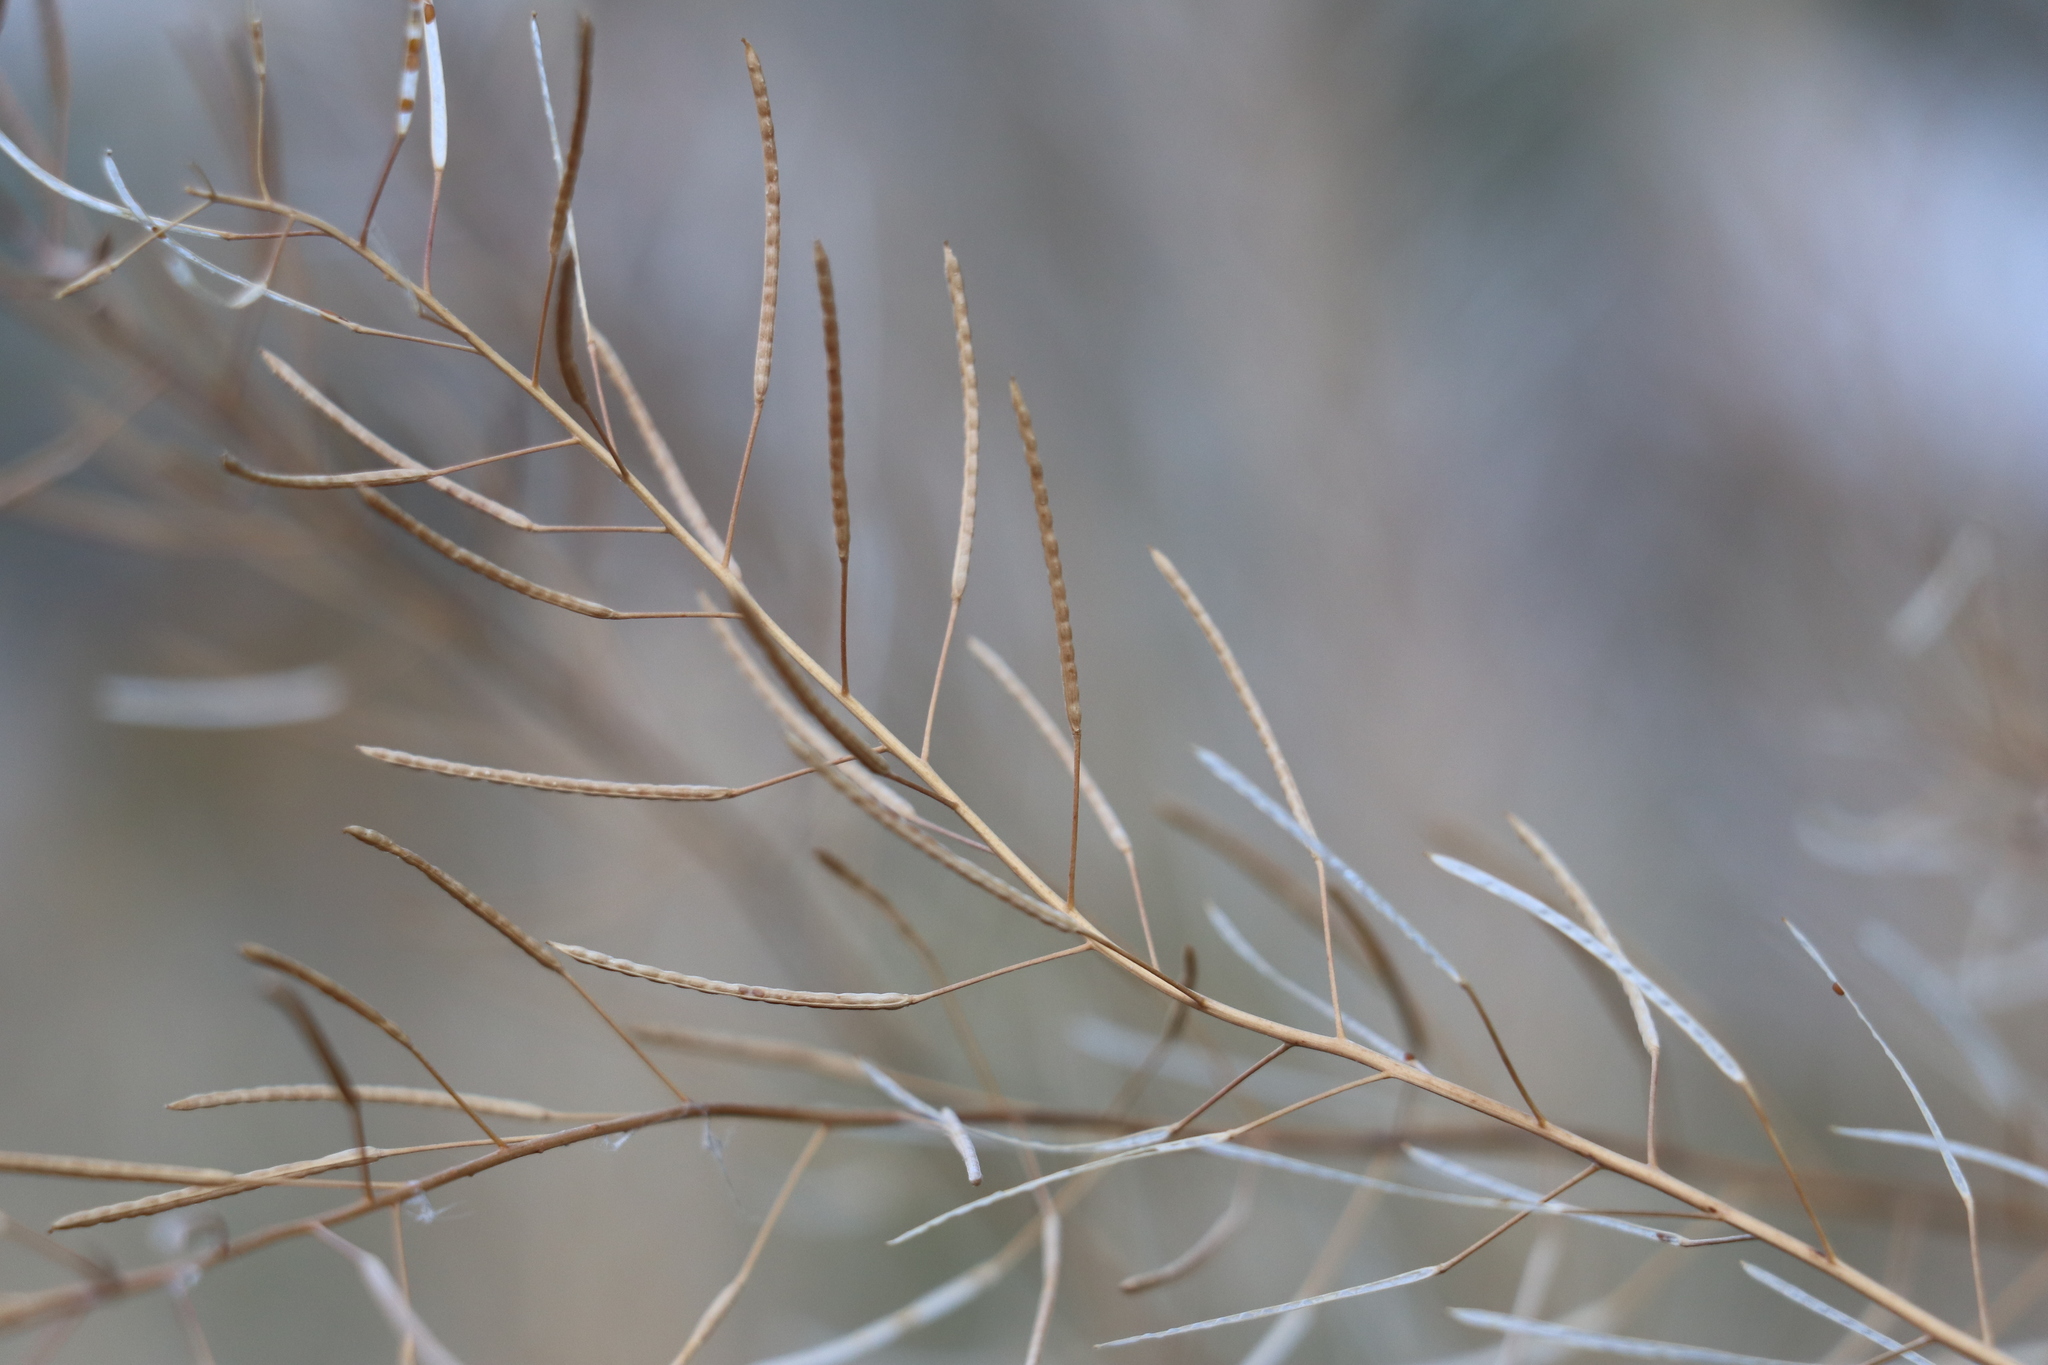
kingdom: Plantae
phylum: Tracheophyta
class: Magnoliopsida
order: Brassicales
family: Brassicaceae
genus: Erysimum
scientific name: Erysimum cheiranthoides
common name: Treacle mustard
